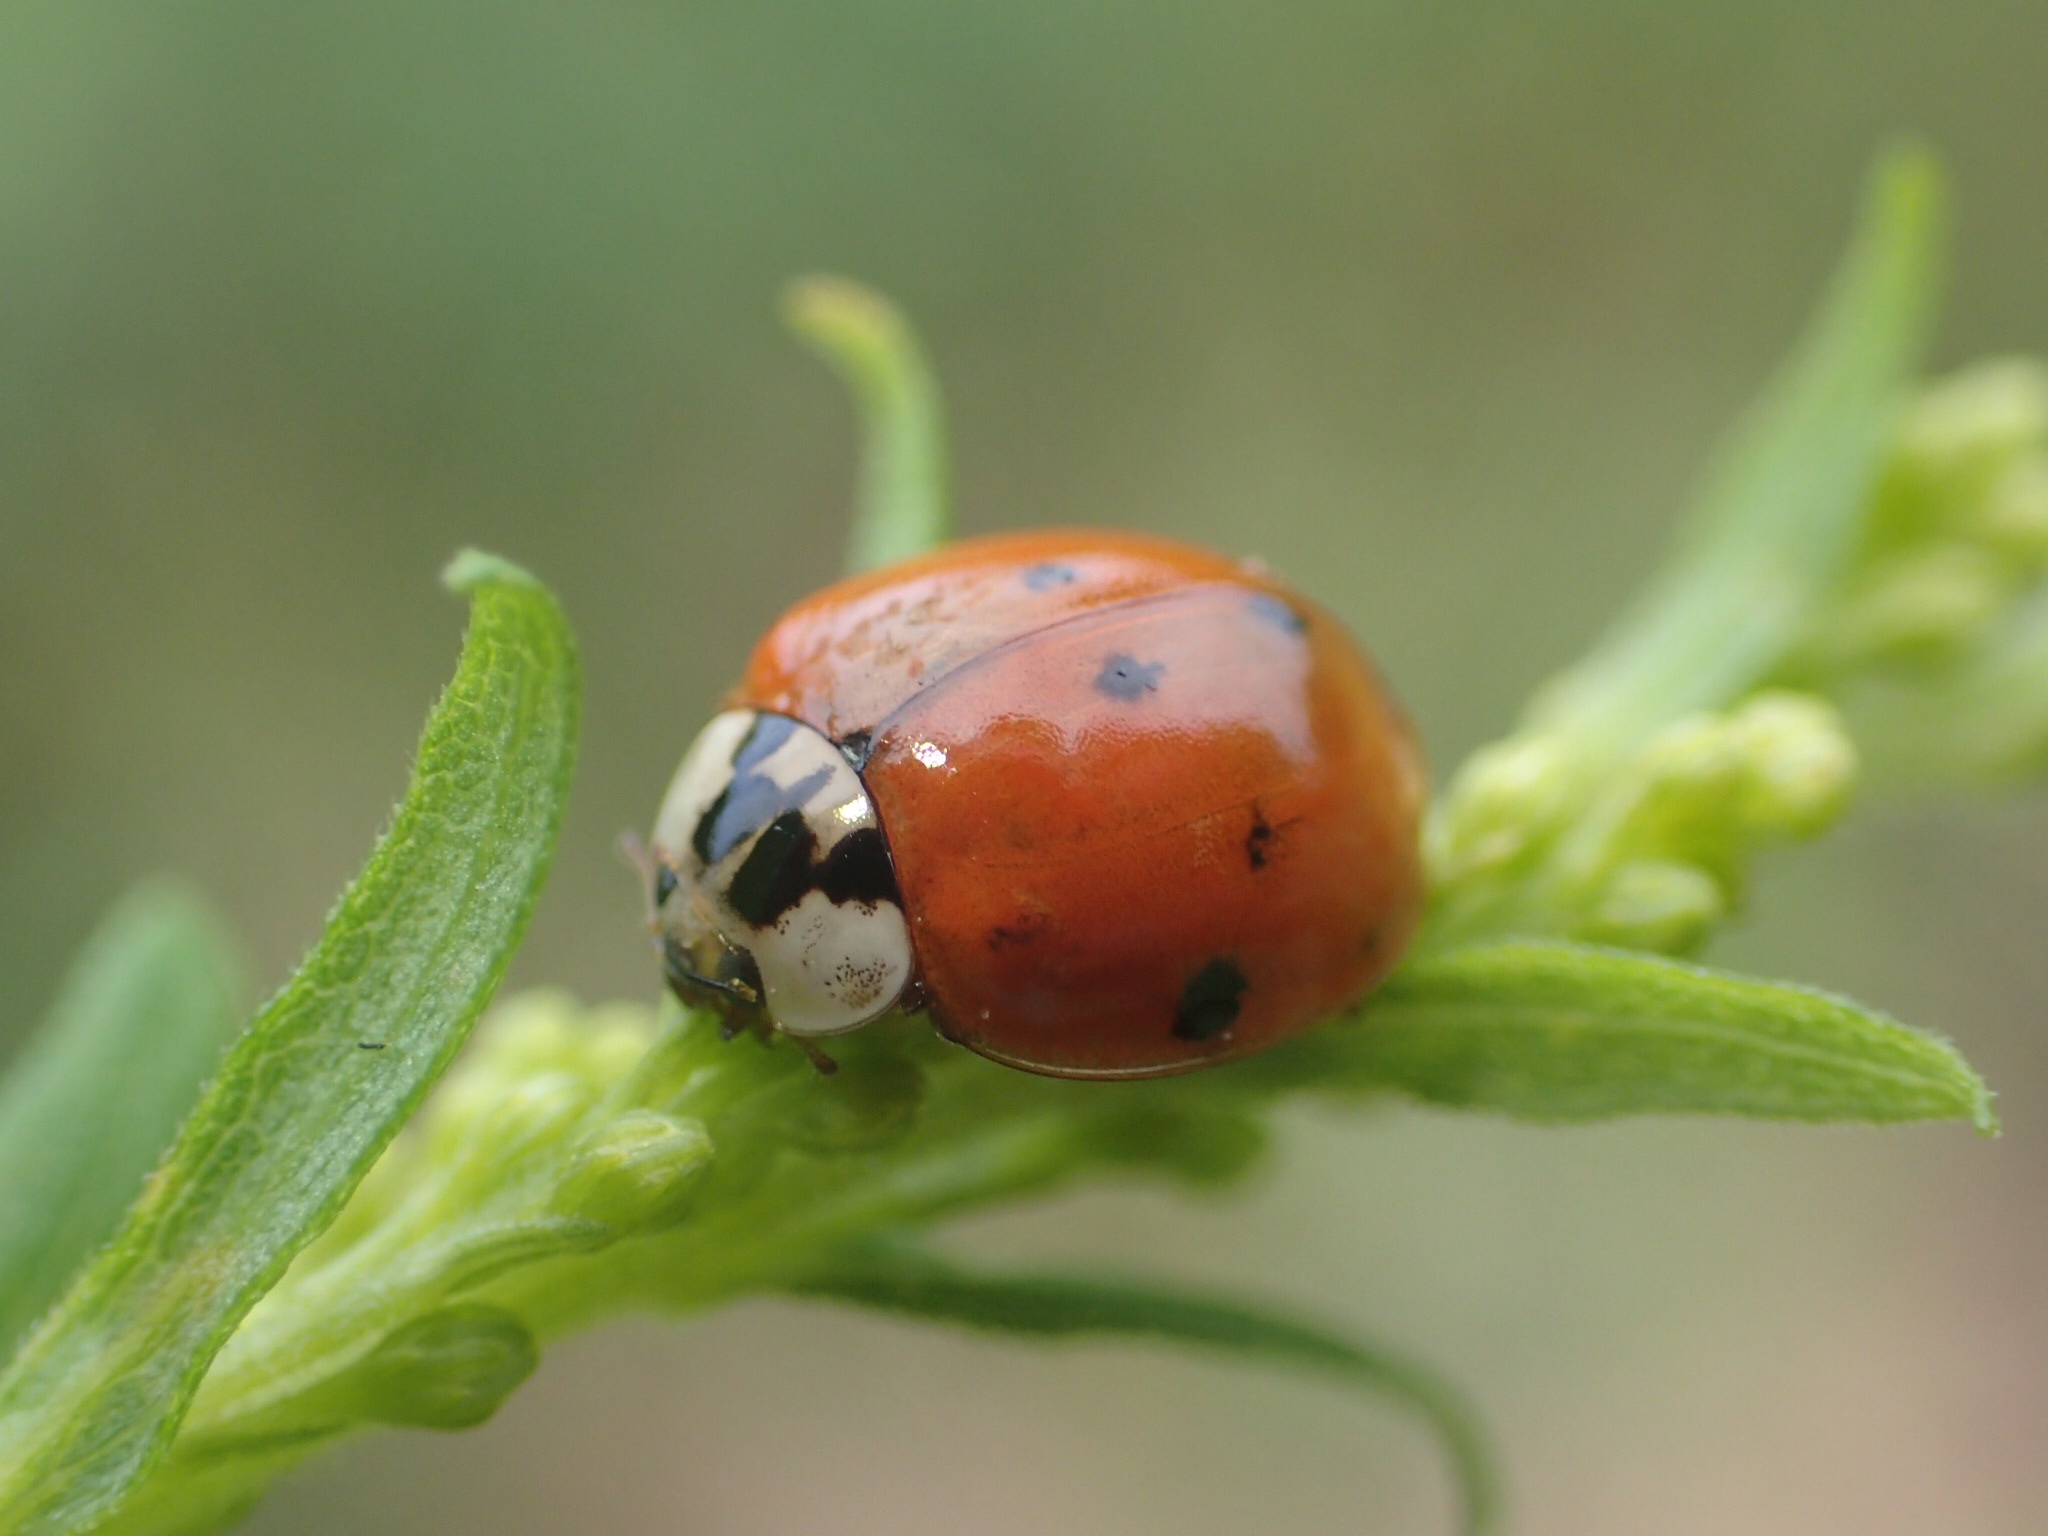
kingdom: Animalia
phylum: Arthropoda
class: Insecta
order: Coleoptera
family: Coccinellidae
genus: Harmonia
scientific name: Harmonia axyridis
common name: Harlequin ladybird
